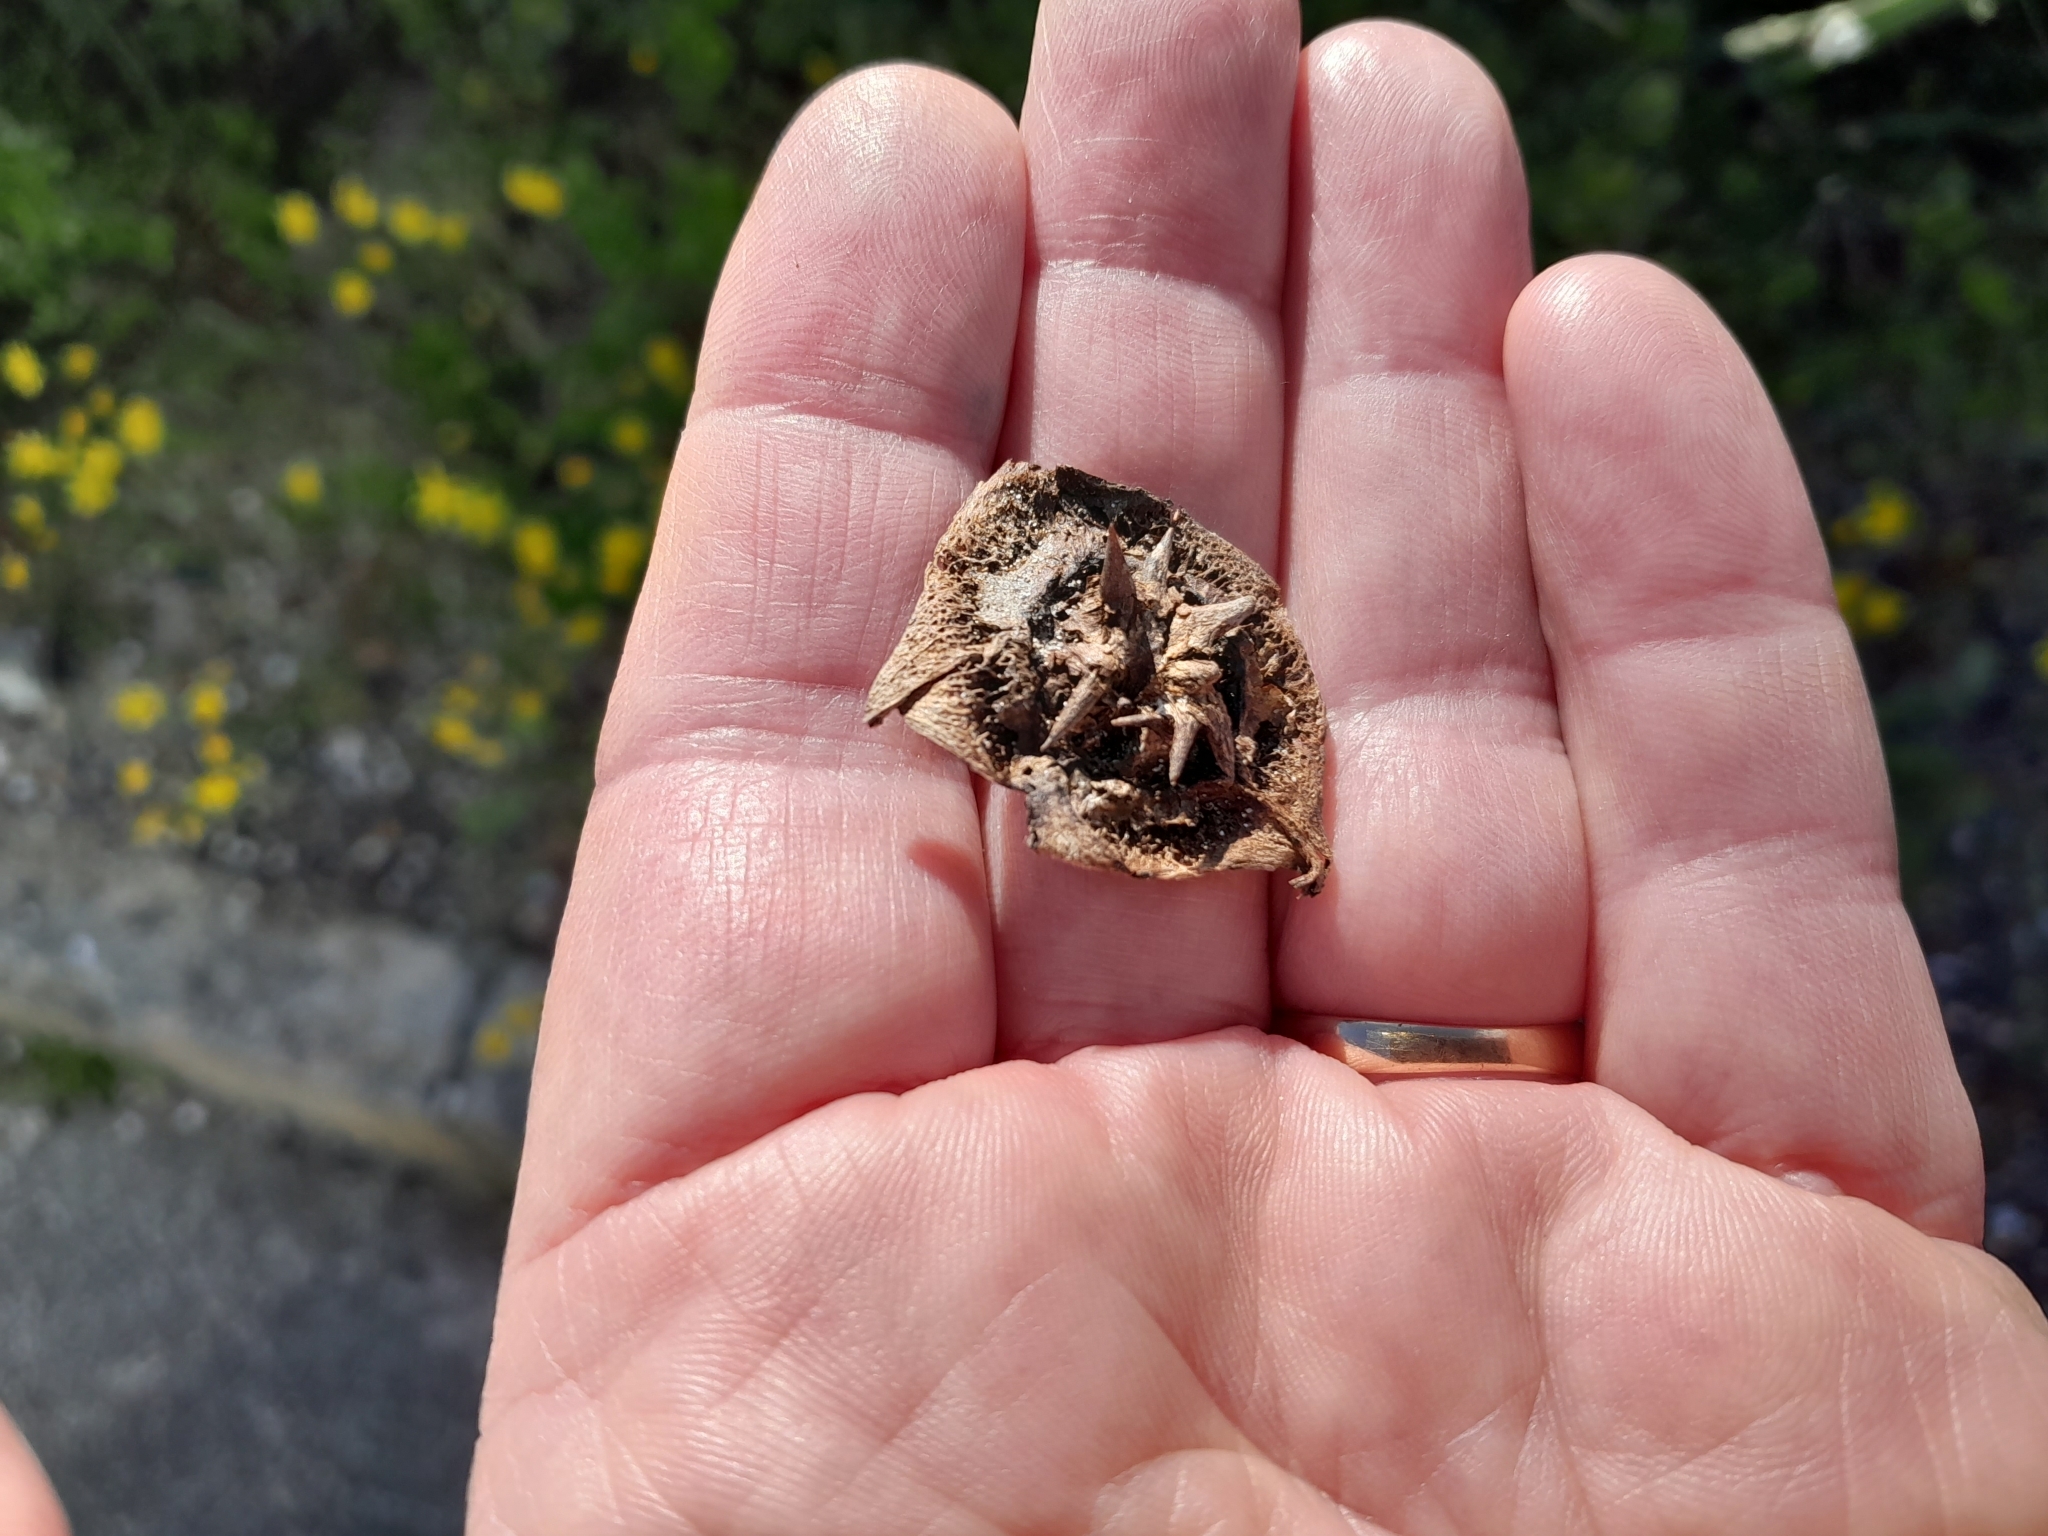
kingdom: Plantae
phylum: Tracheophyta
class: Magnoliopsida
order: Malvales
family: Neuradaceae
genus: Grielum
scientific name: Grielum grandiflorum
